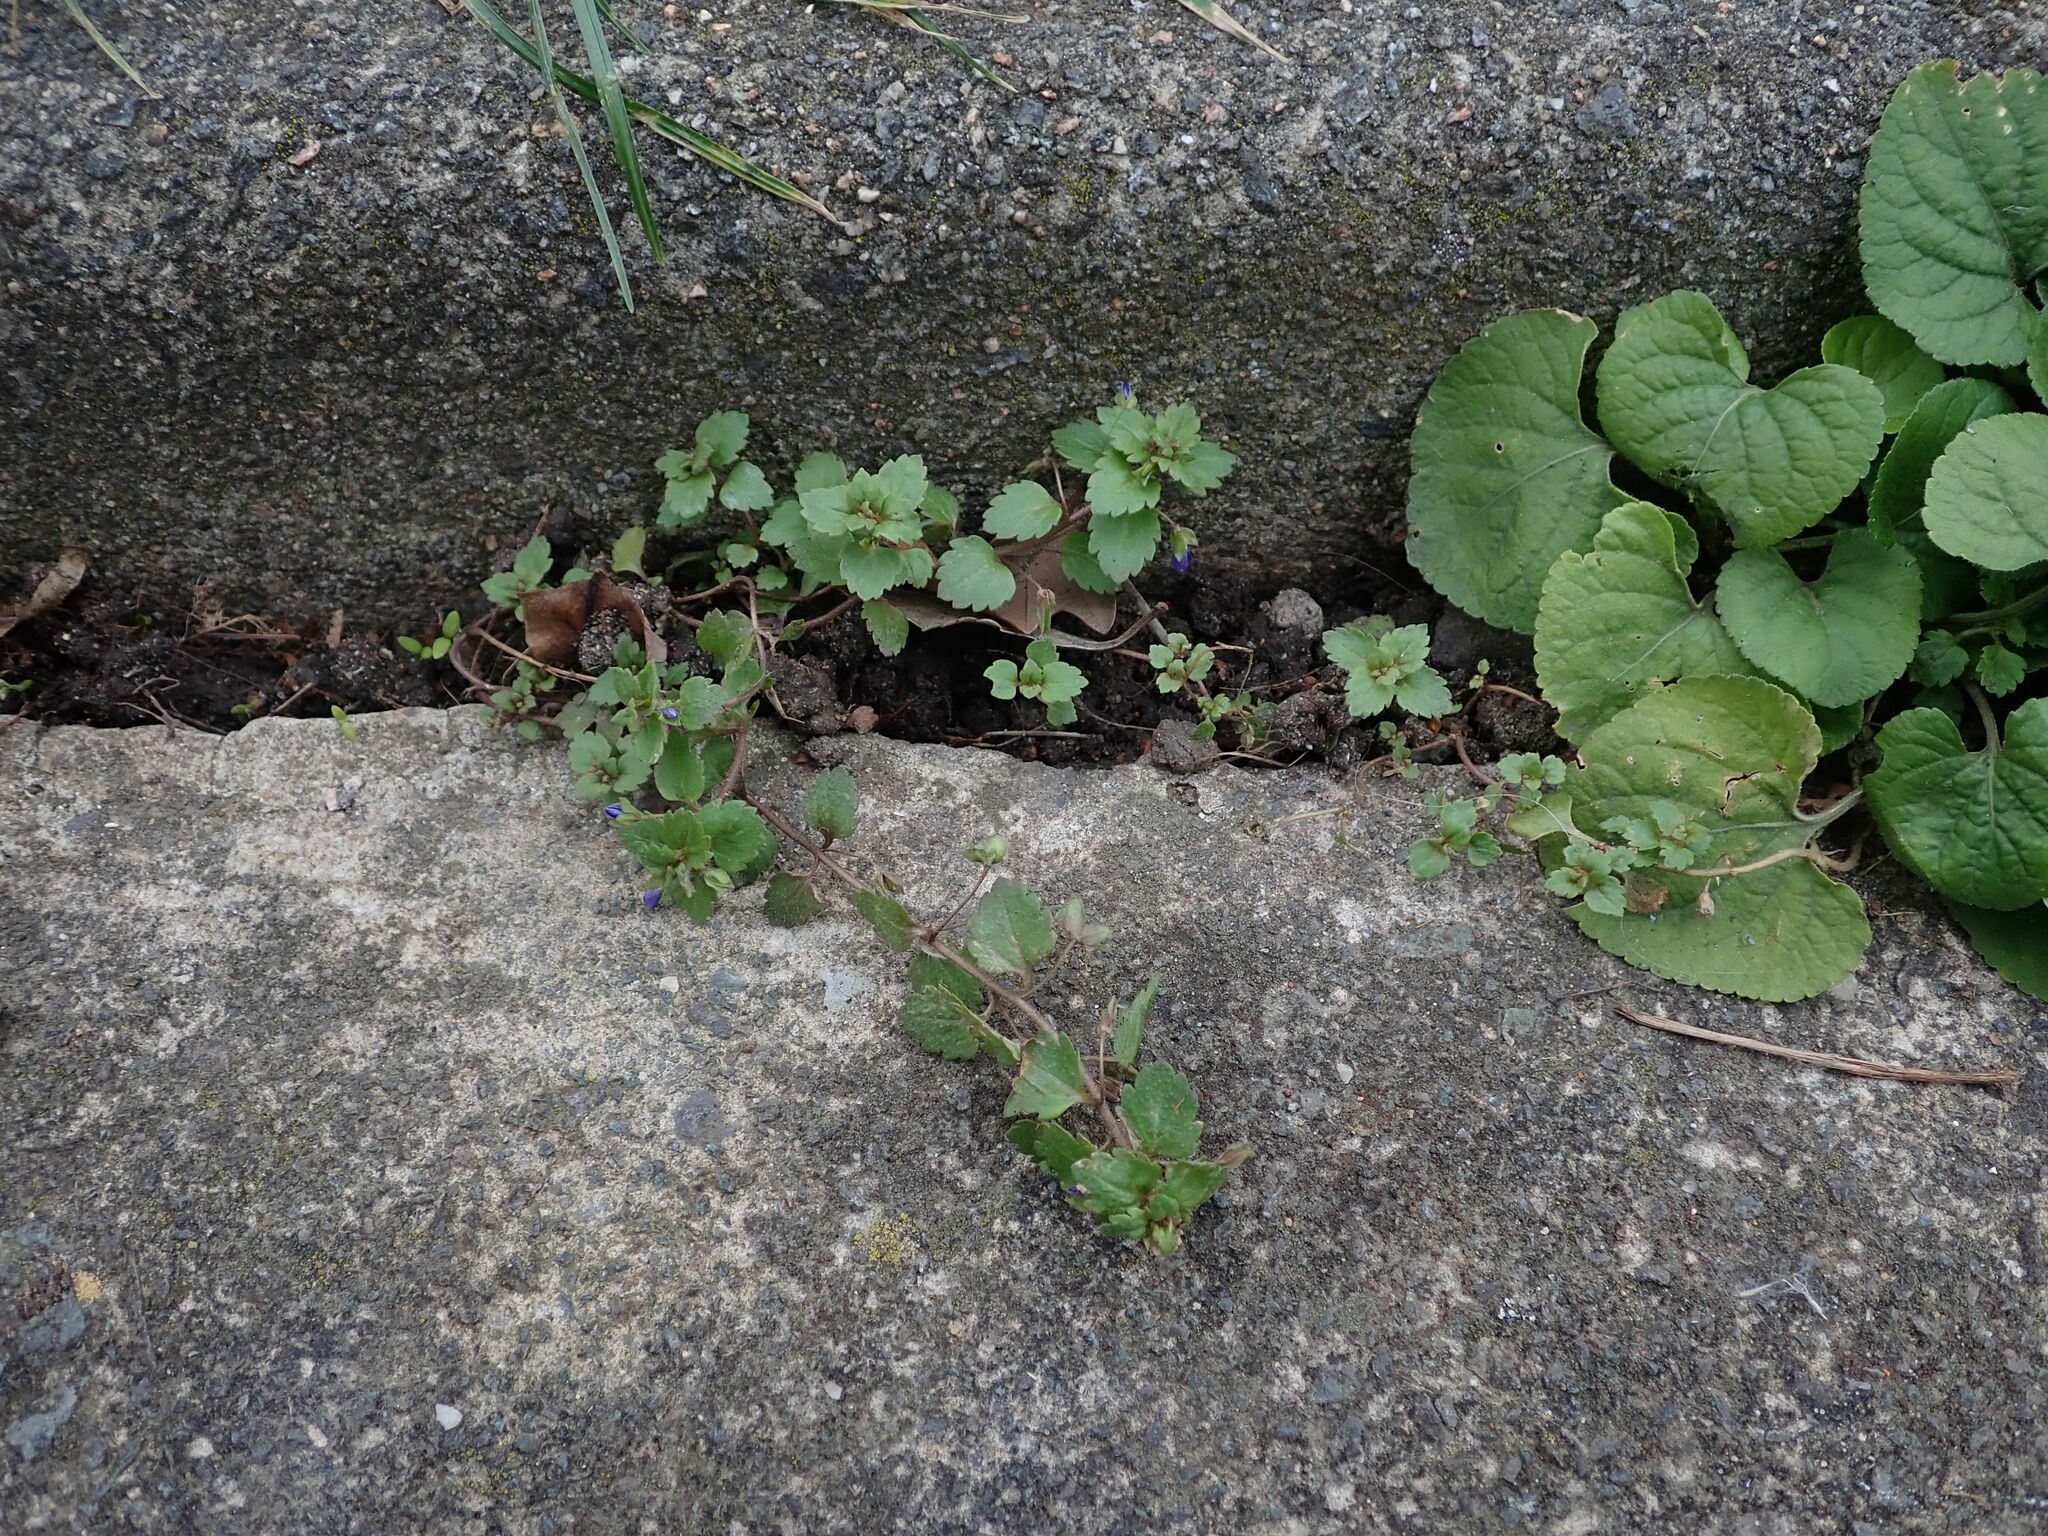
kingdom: Plantae
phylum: Tracheophyta
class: Magnoliopsida
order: Lamiales
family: Plantaginaceae
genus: Veronica
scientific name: Veronica polita
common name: Grey field-speedwell
